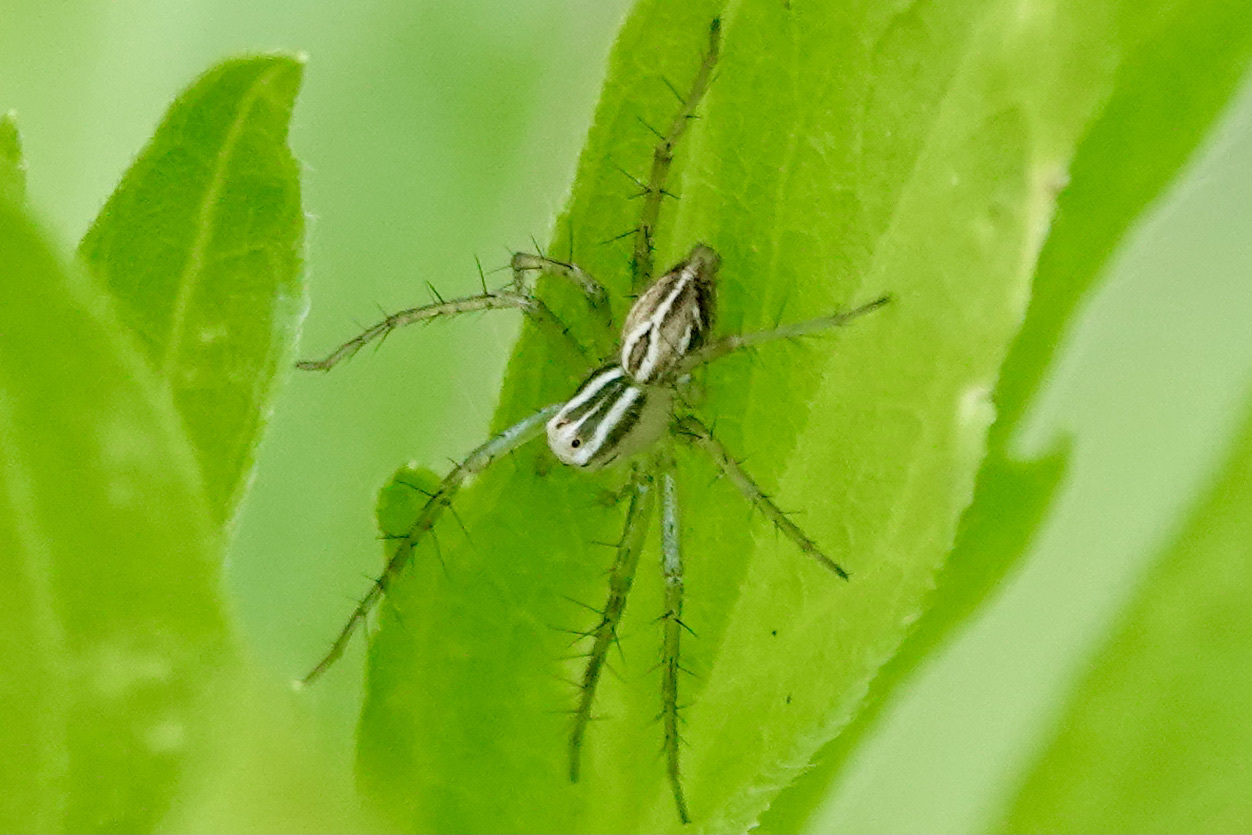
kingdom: Animalia
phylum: Arthropoda
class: Arachnida
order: Araneae
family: Oxyopidae
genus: Oxyopes
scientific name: Oxyopes salticus
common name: Lynx spiders
